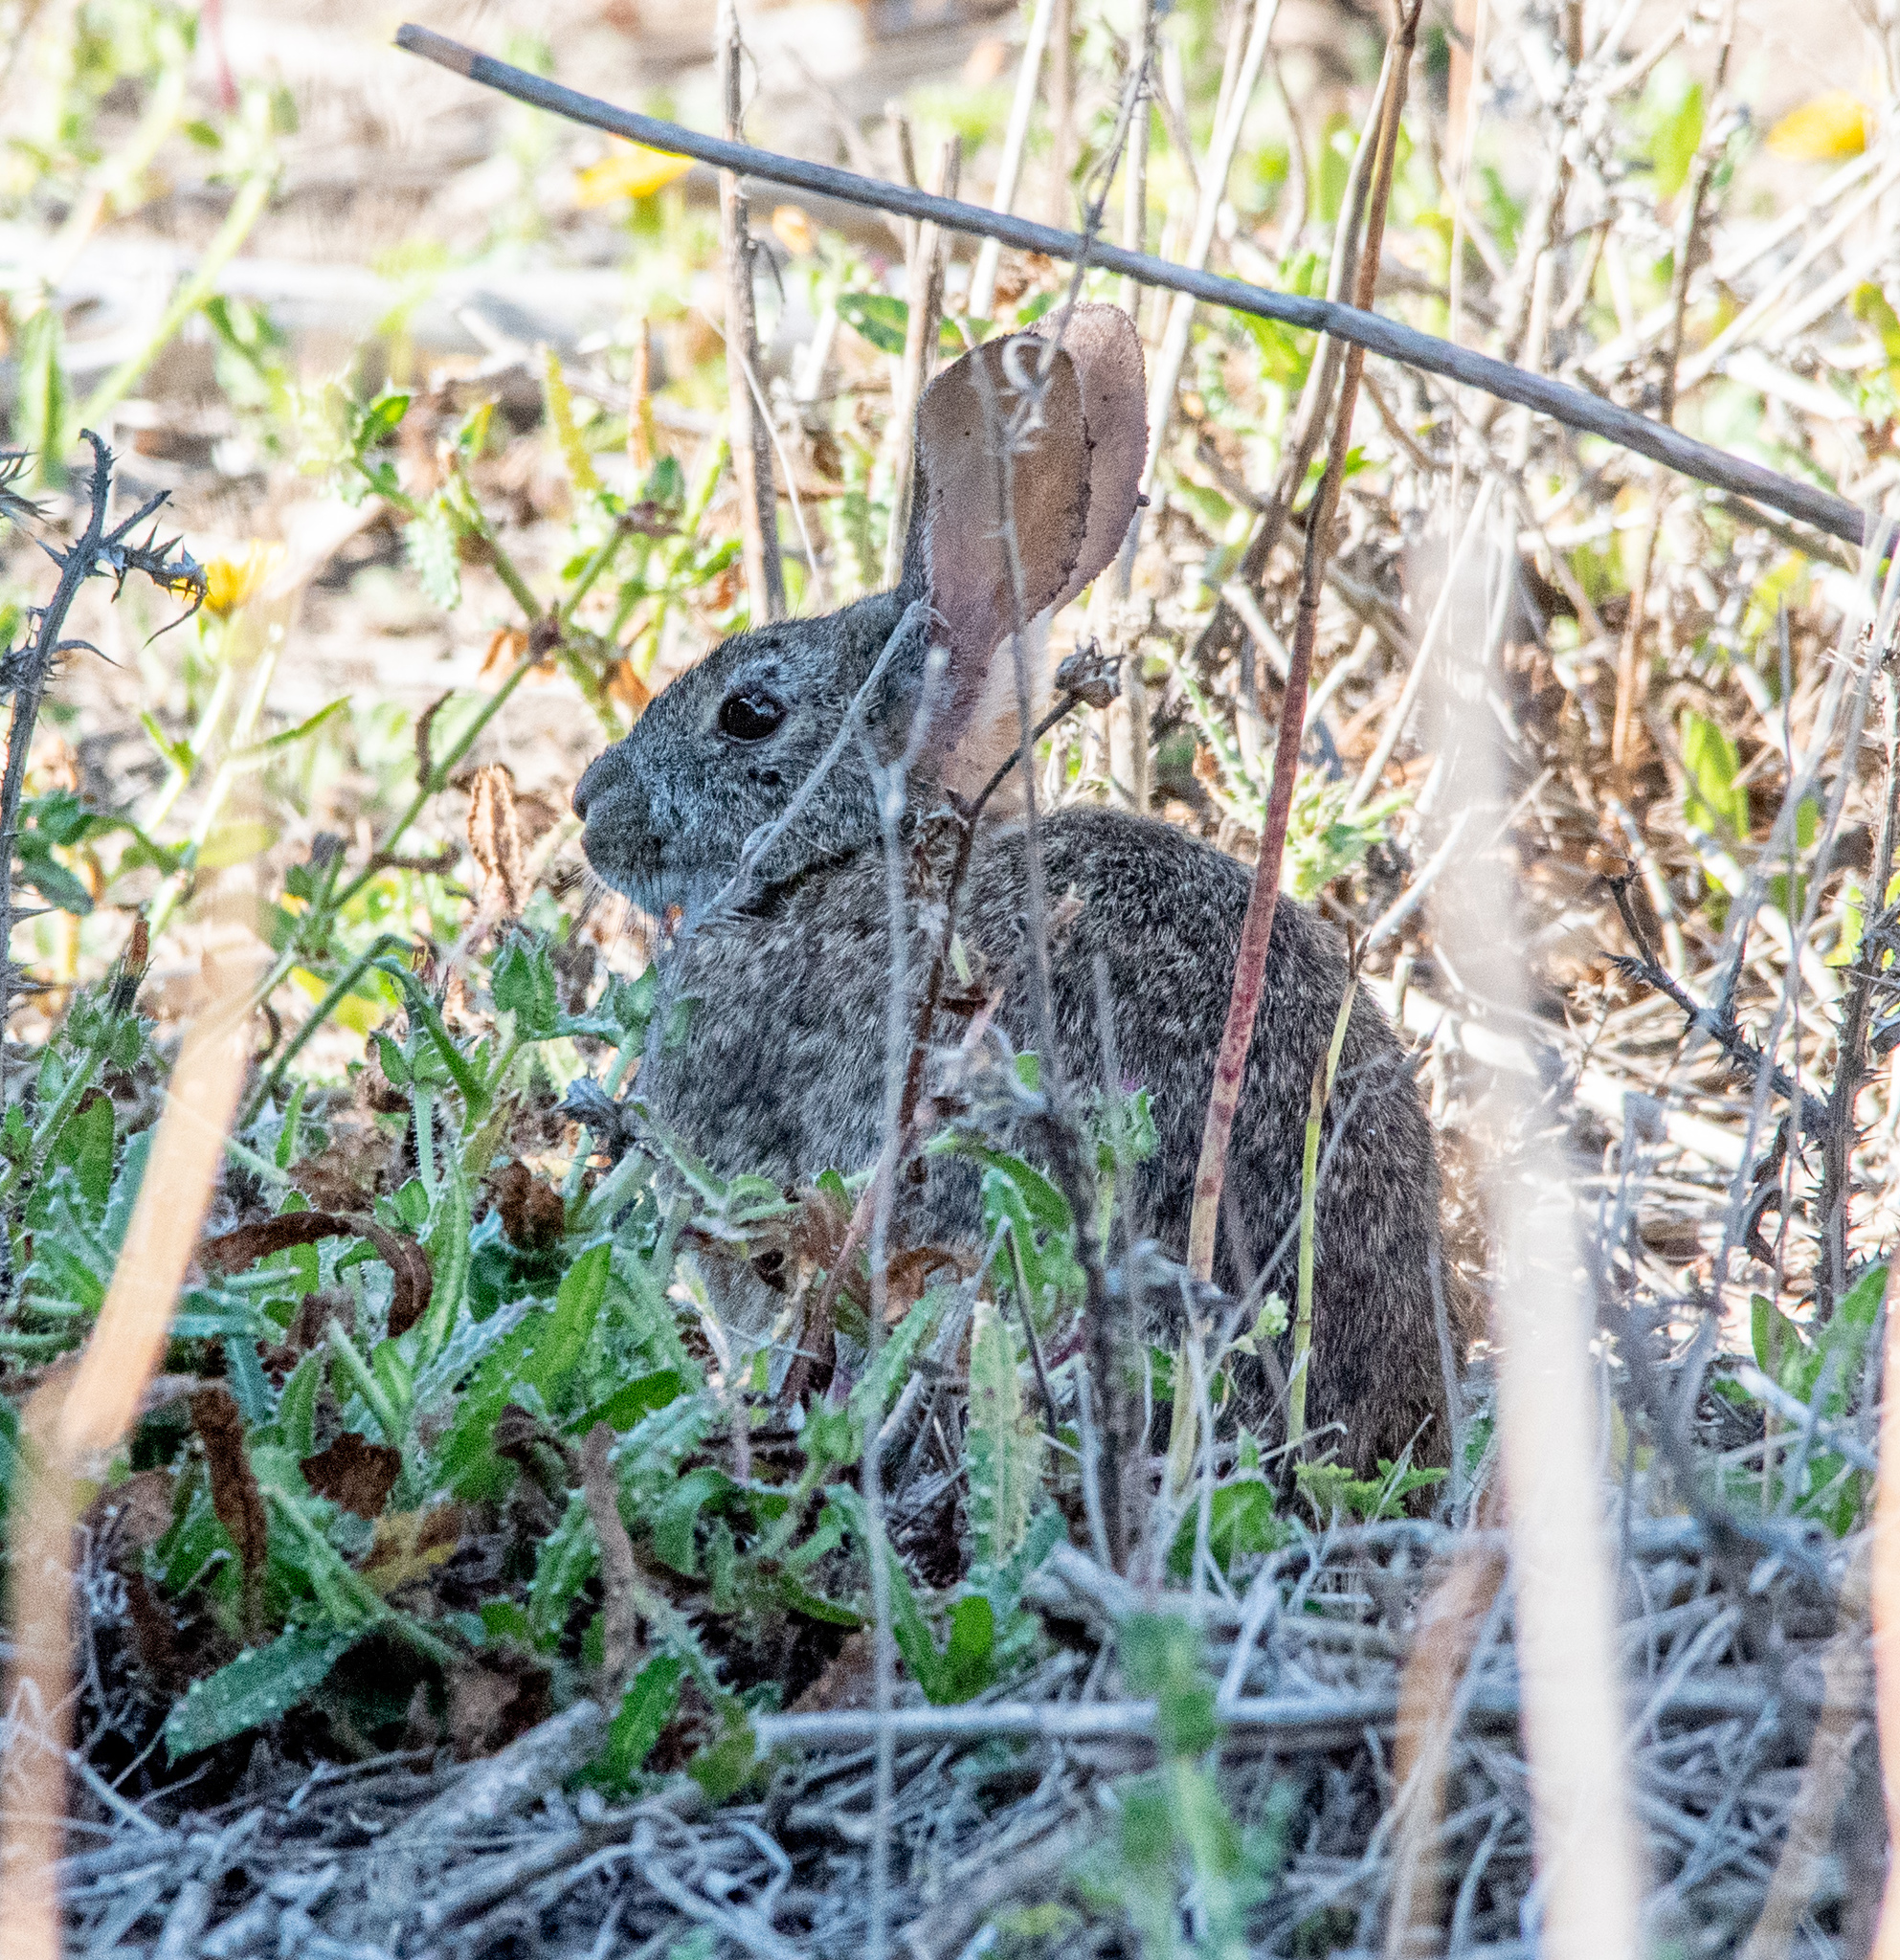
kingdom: Animalia
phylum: Chordata
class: Mammalia
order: Lagomorpha
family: Leporidae
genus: Sylvilagus
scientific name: Sylvilagus bachmani
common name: Brush rabbit
